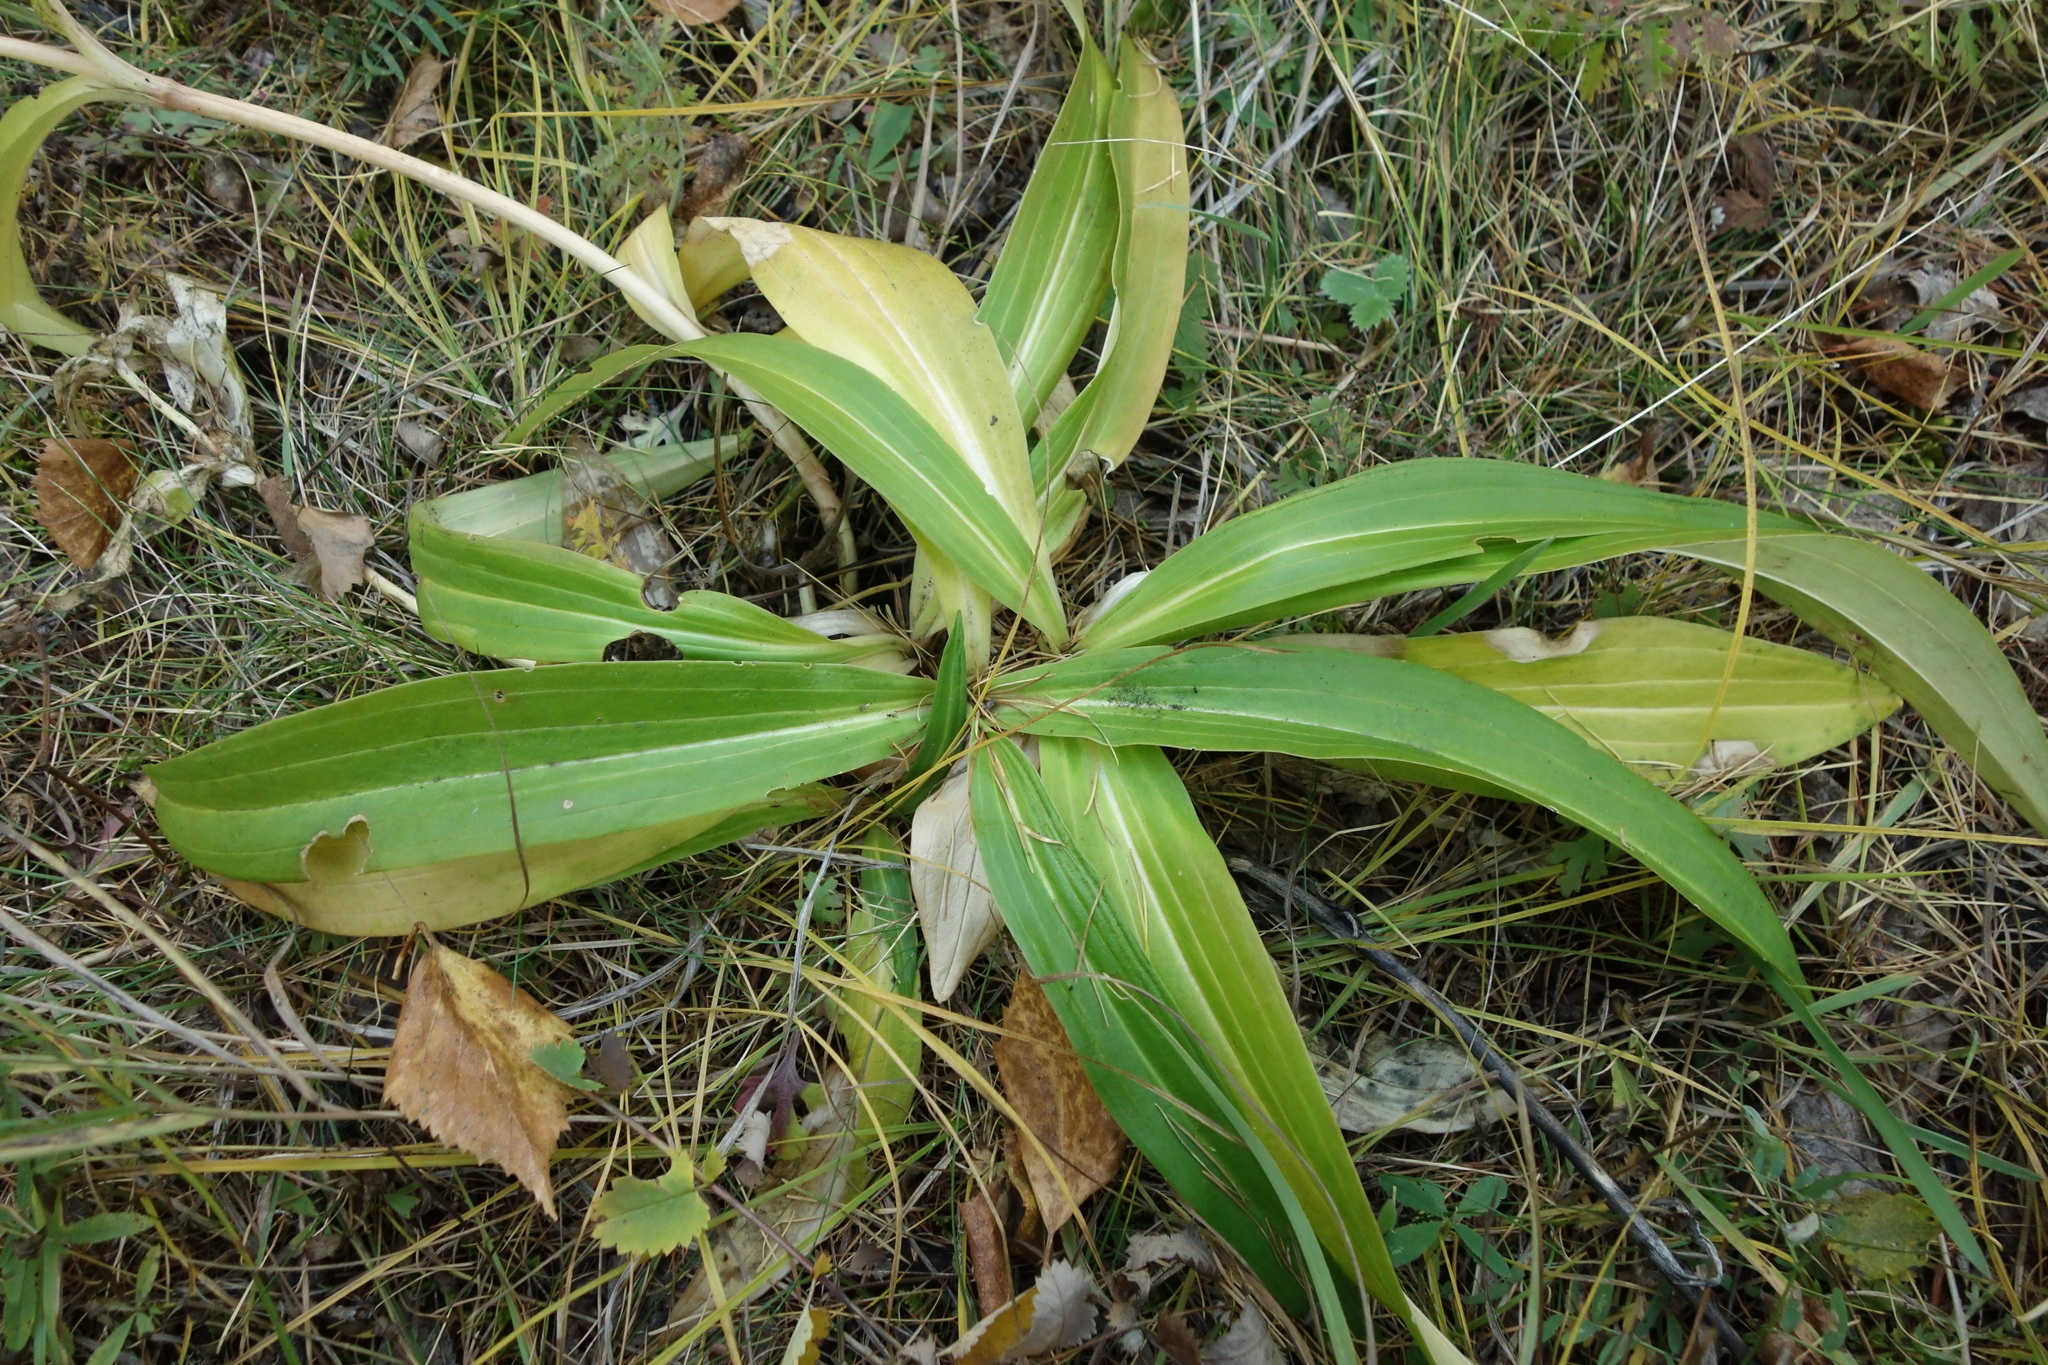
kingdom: Plantae
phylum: Tracheophyta
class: Magnoliopsida
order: Gentianales
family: Gentianaceae
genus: Gentiana
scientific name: Gentiana macrophylla
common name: Large-leaf gentian
